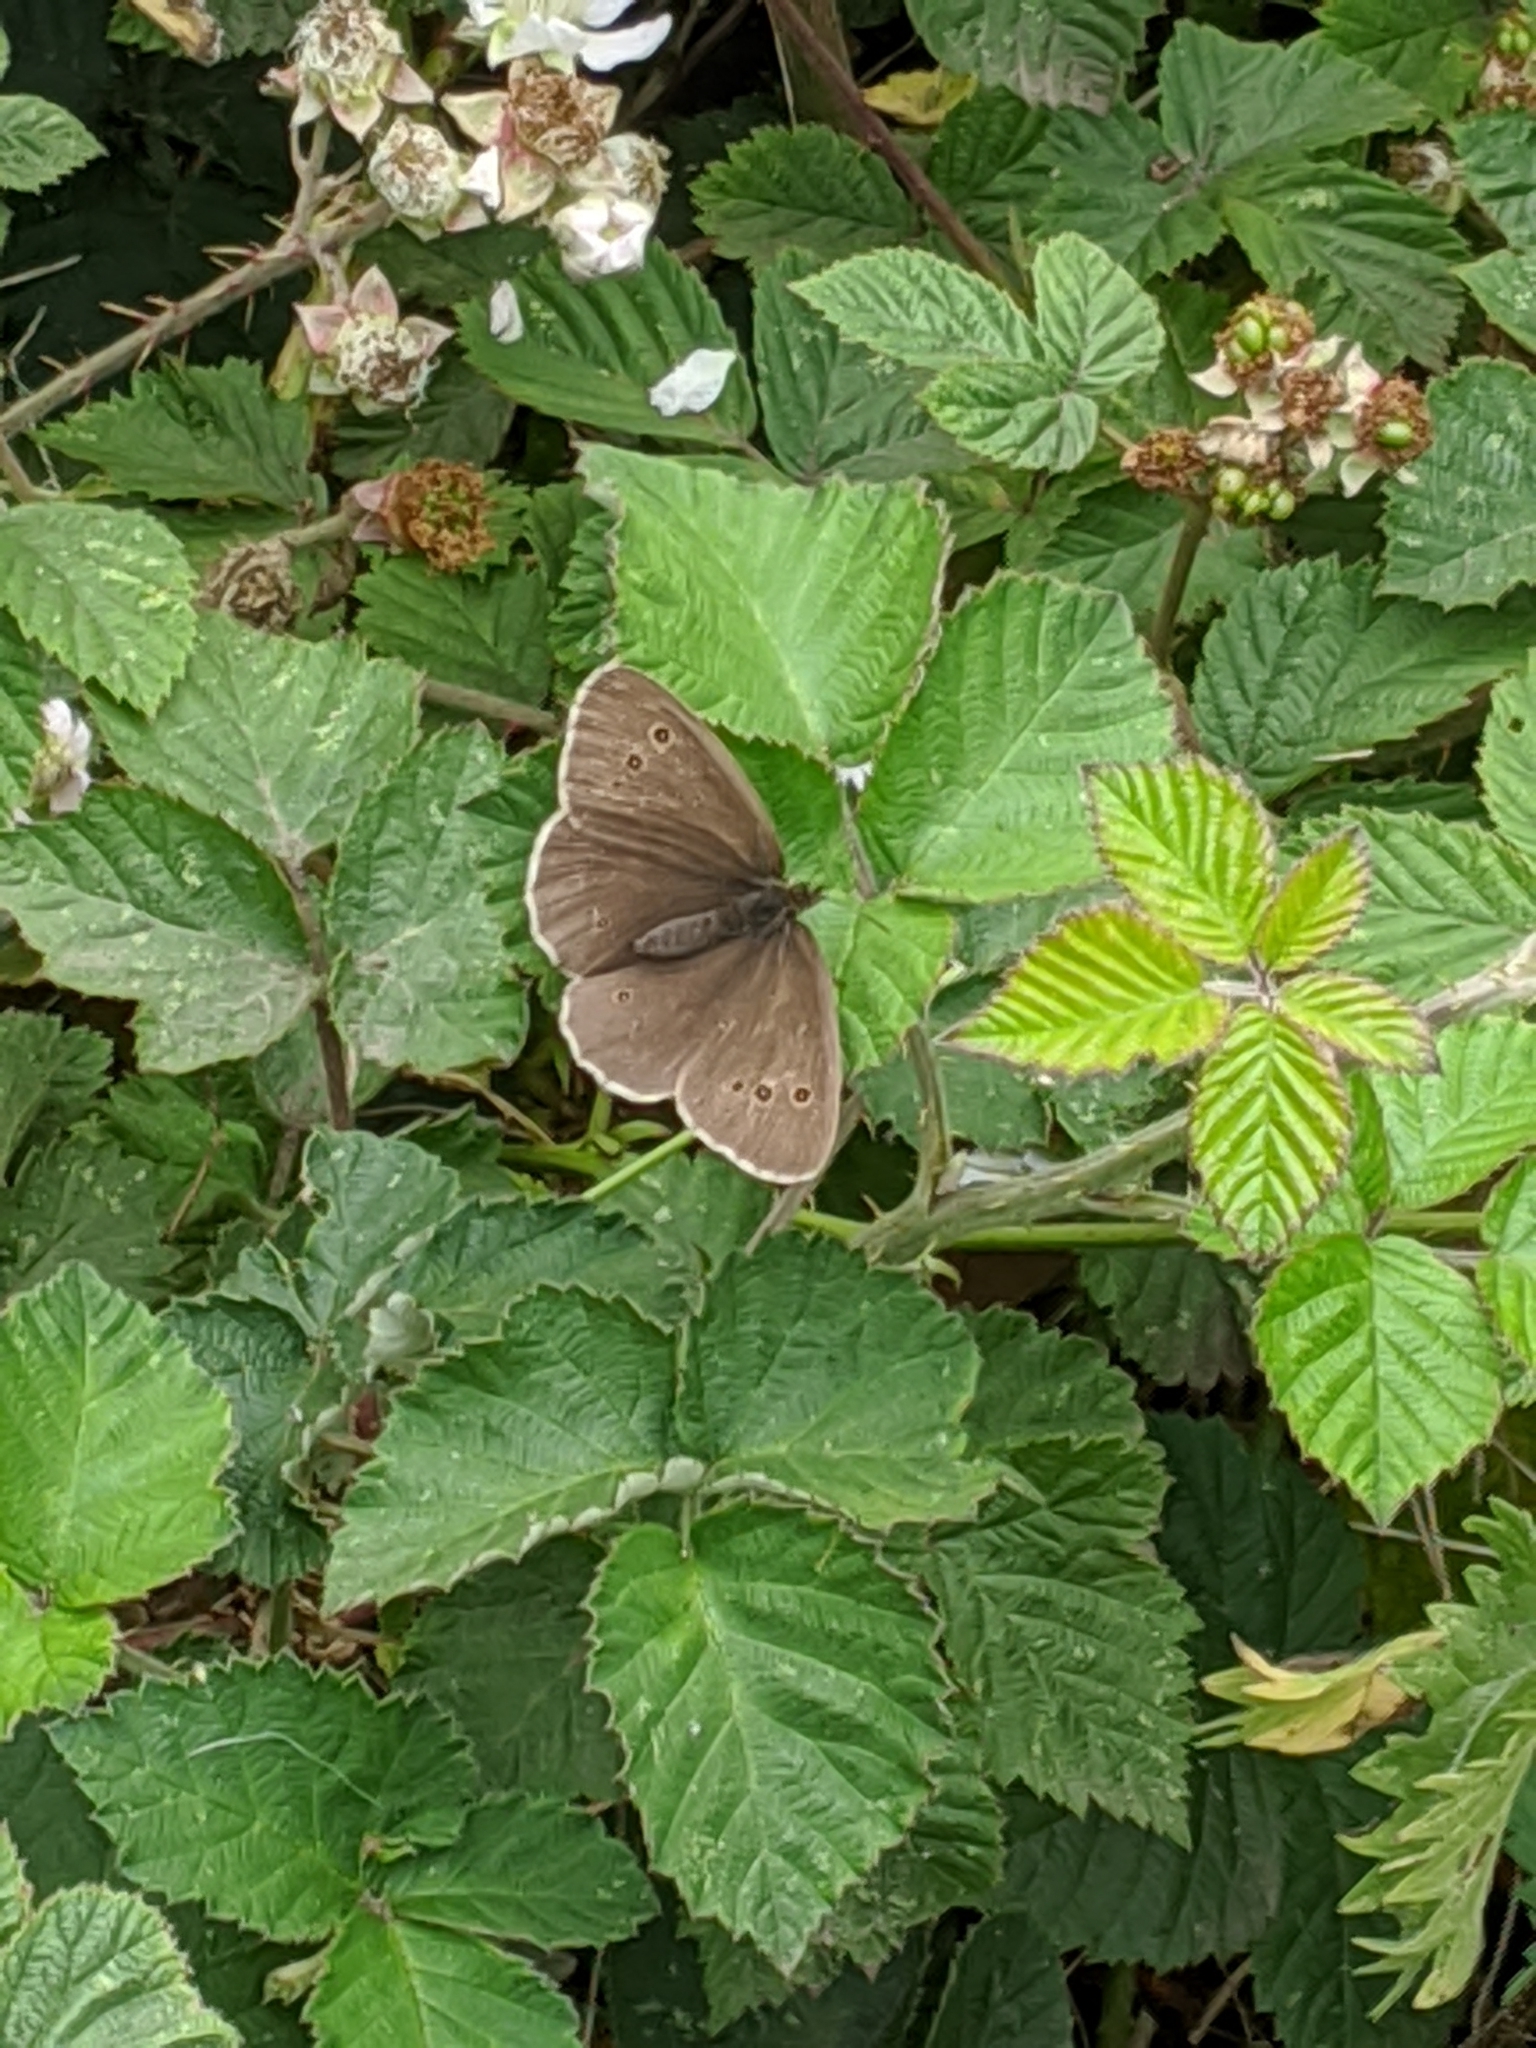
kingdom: Animalia
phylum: Arthropoda
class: Insecta
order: Lepidoptera
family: Nymphalidae
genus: Aphantopus
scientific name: Aphantopus hyperantus
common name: Ringlet
